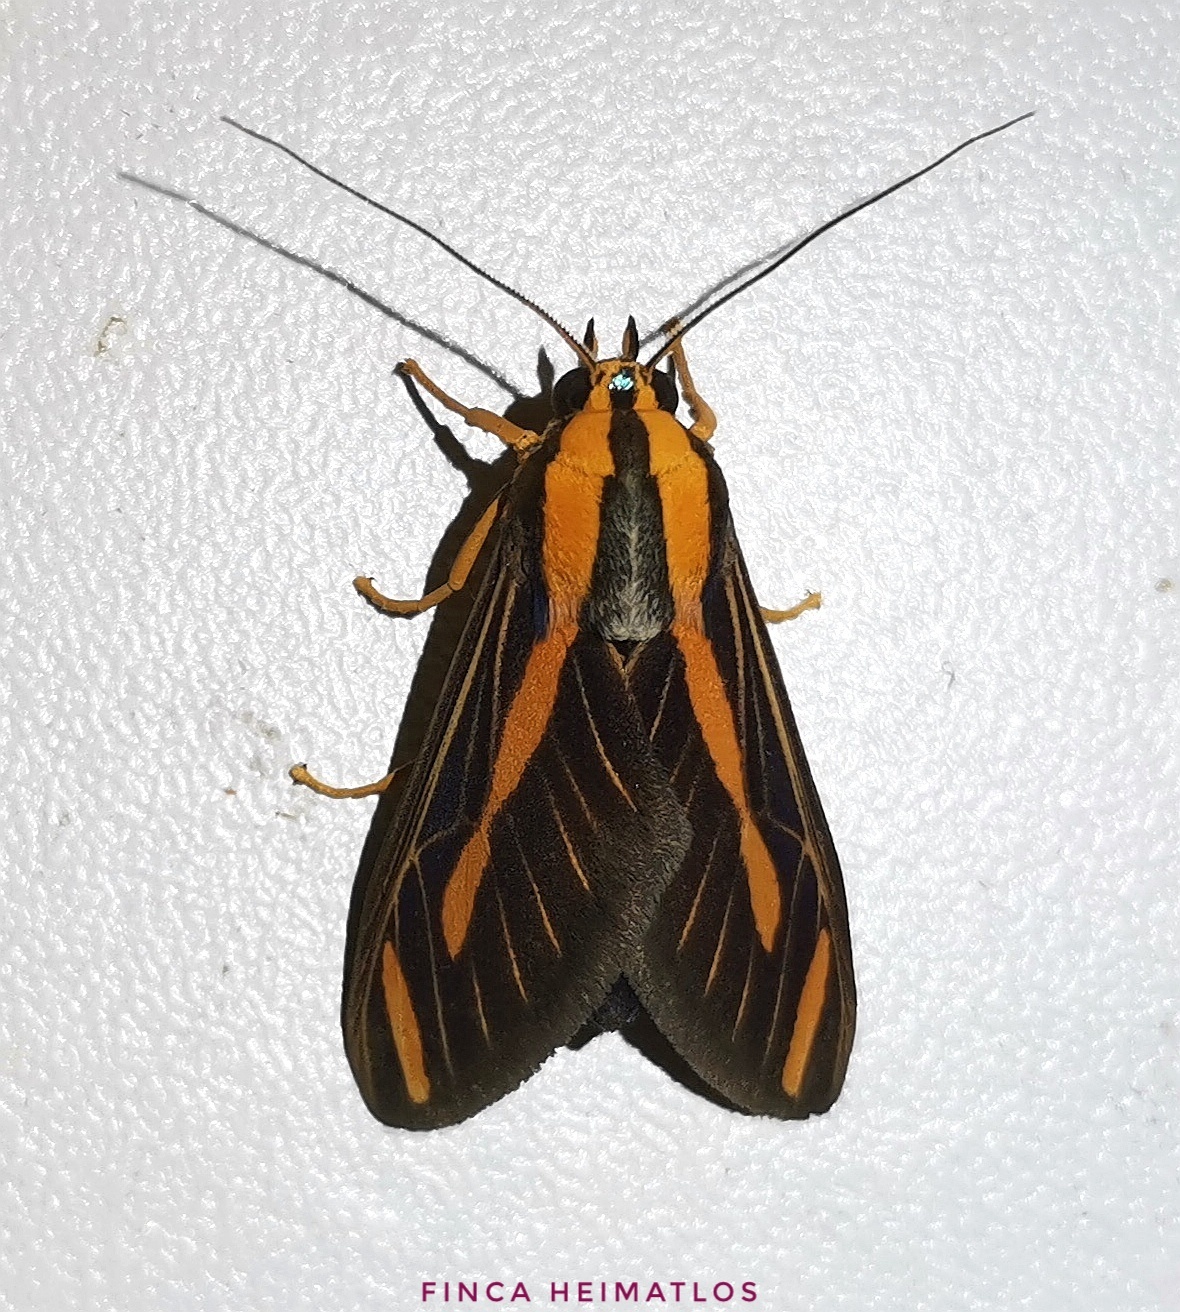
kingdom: Animalia
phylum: Arthropoda
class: Insecta
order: Lepidoptera
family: Erebidae
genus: Ormetica
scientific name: Ormetica sypilus
